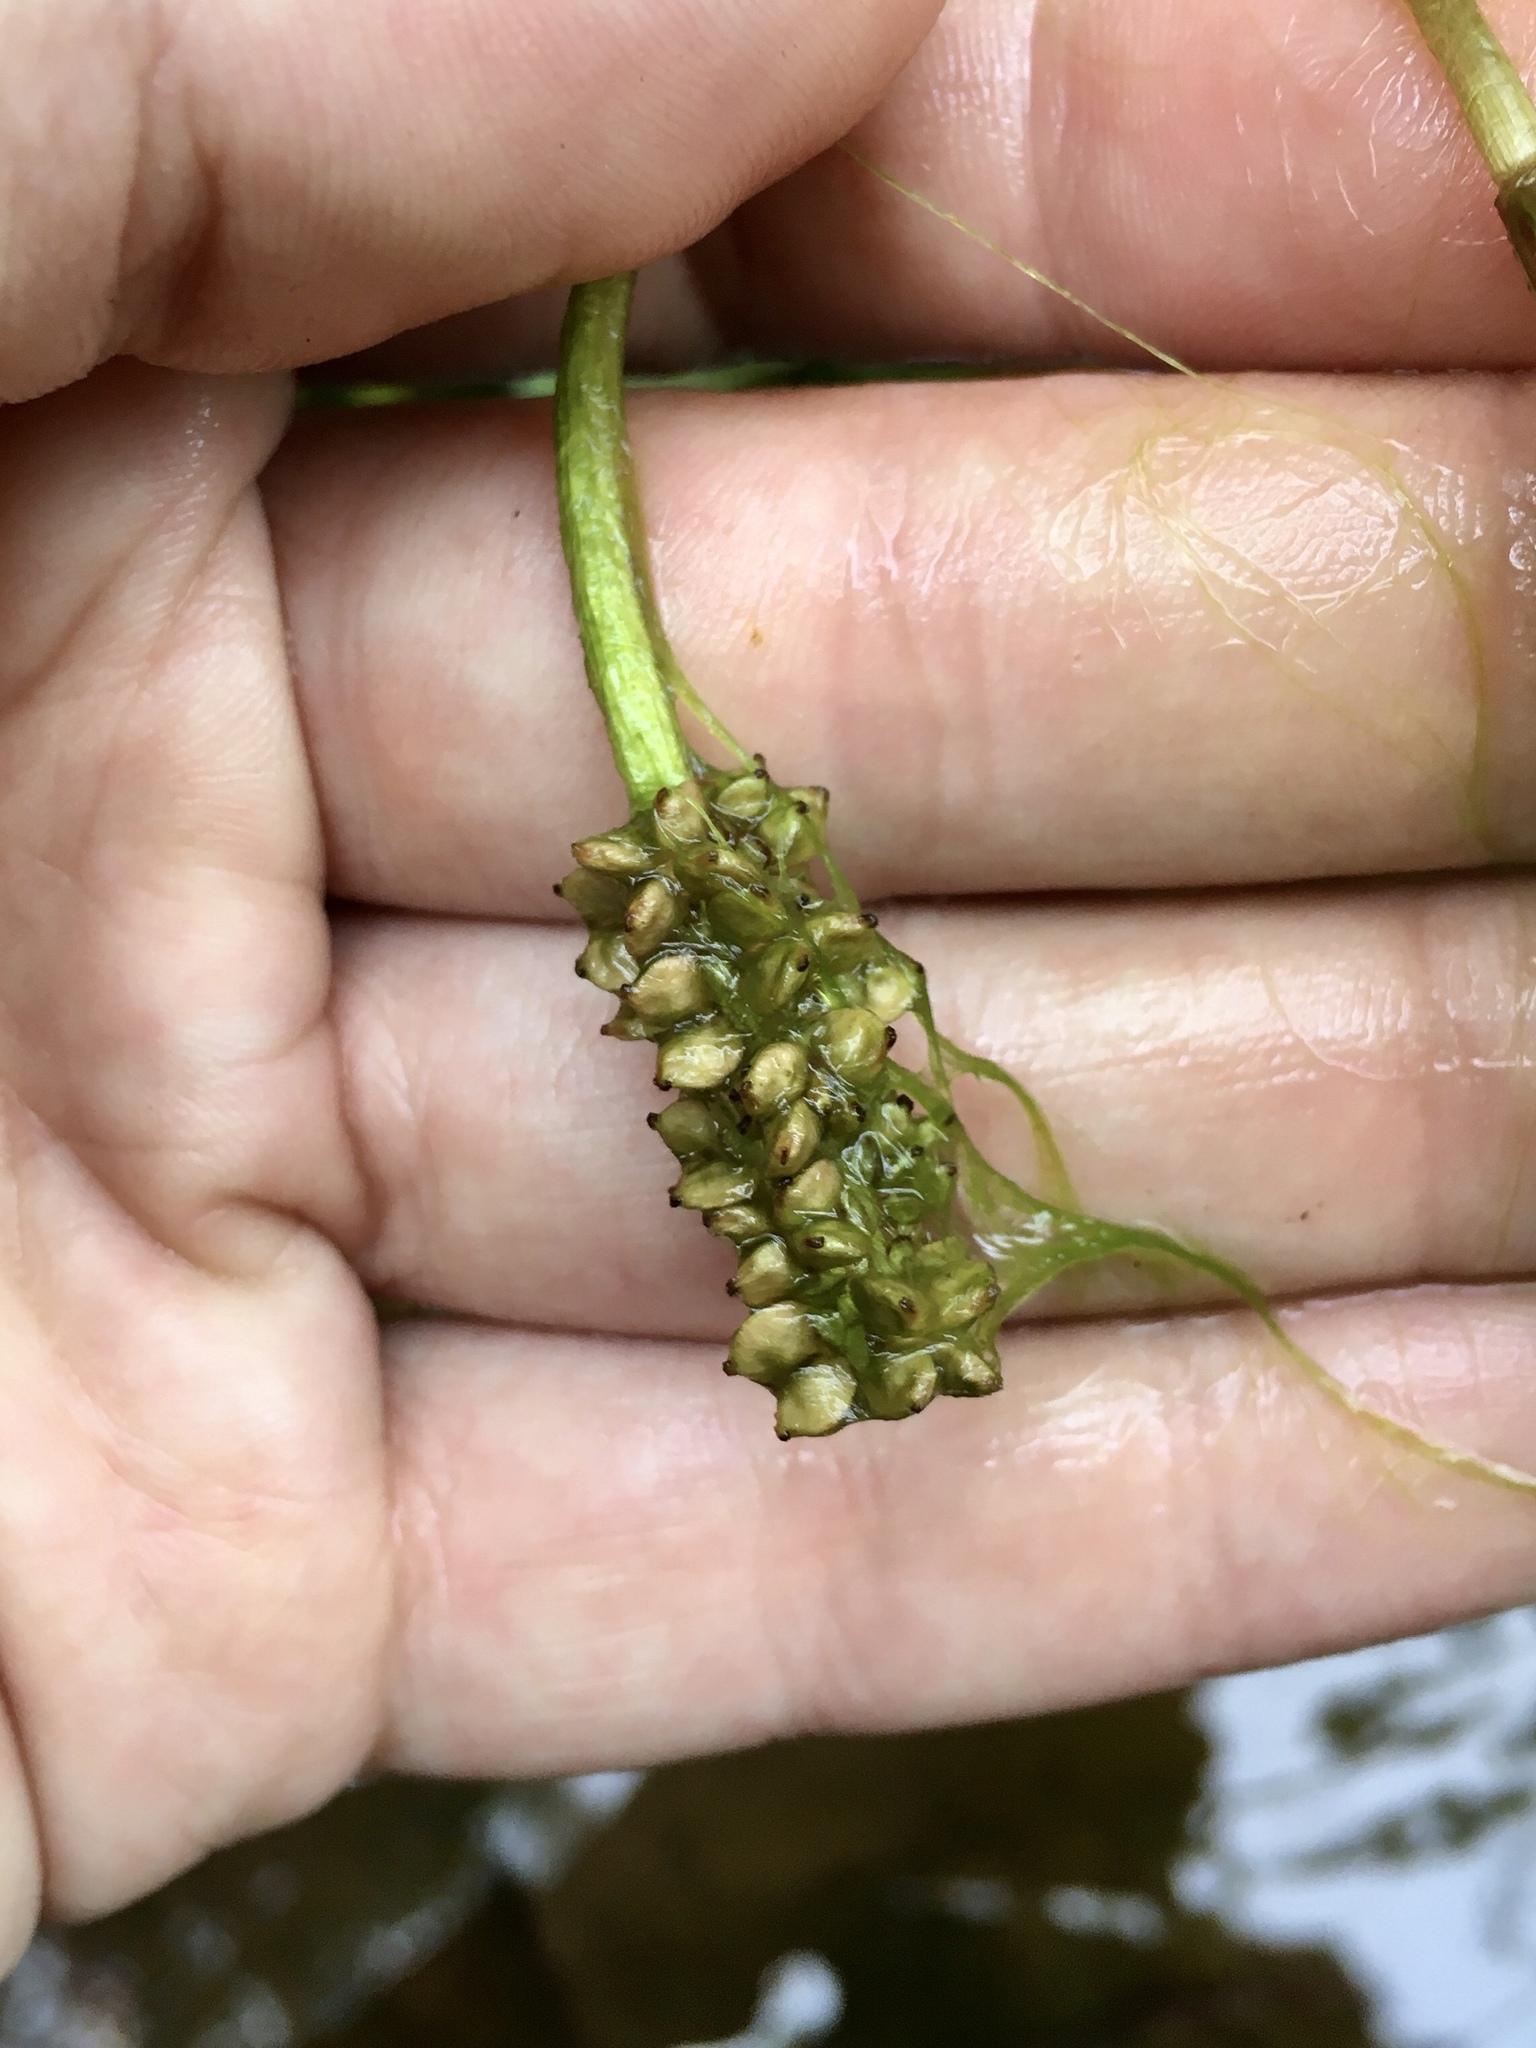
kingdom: Plantae
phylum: Tracheophyta
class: Liliopsida
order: Alismatales
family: Potamogetonaceae
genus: Potamogeton
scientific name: Potamogeton alpinus
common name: Red pondweed
